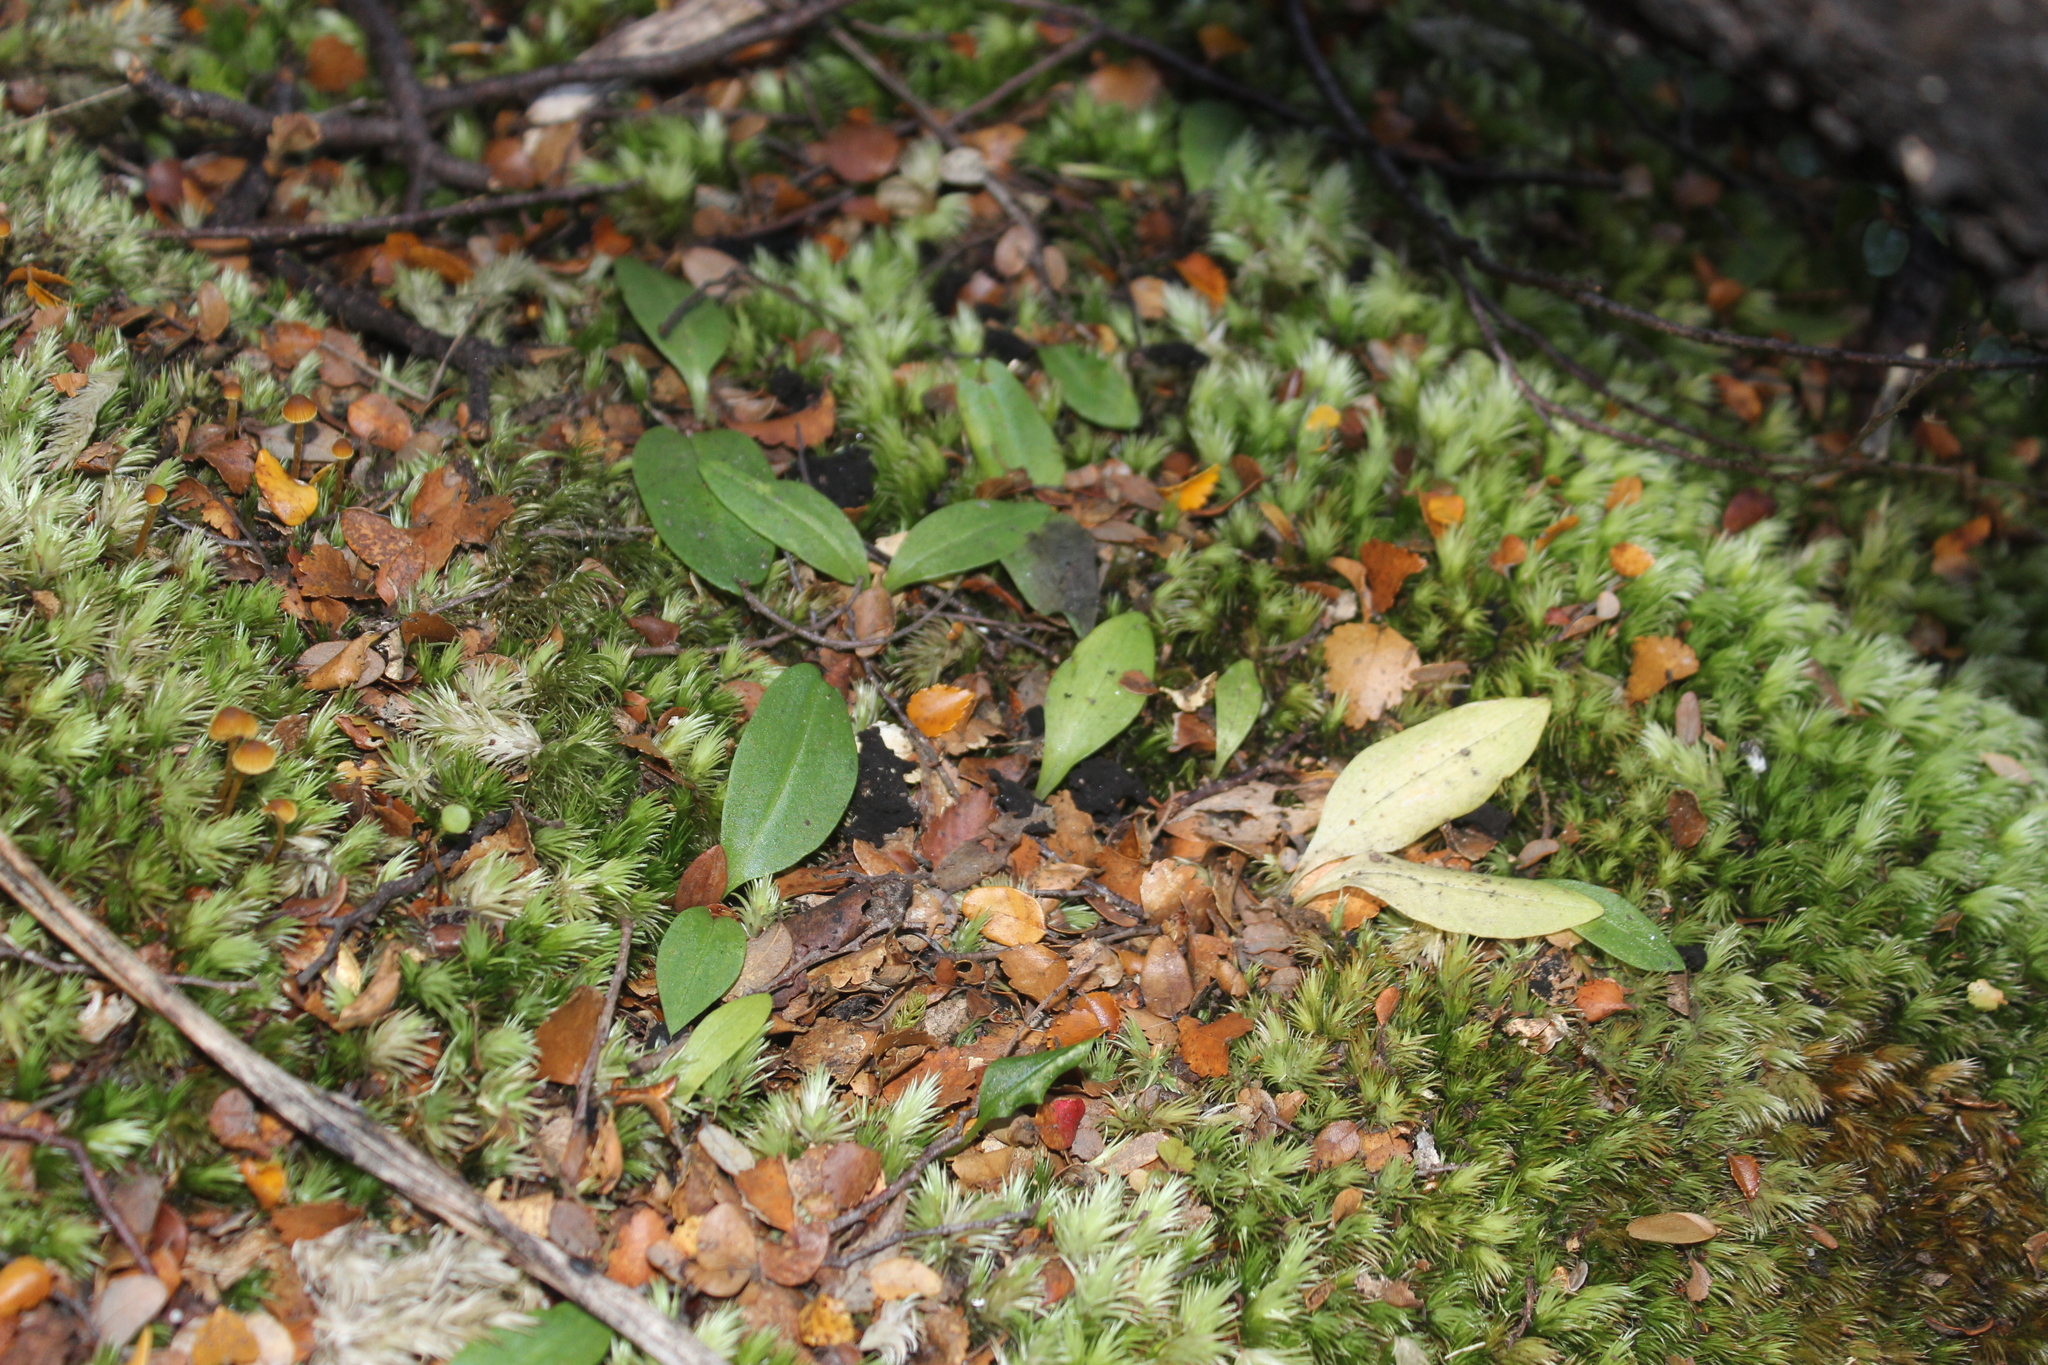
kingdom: Plantae
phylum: Tracheophyta
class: Liliopsida
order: Asparagales
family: Orchidaceae
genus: Chiloglottis
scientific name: Chiloglottis cornuta
